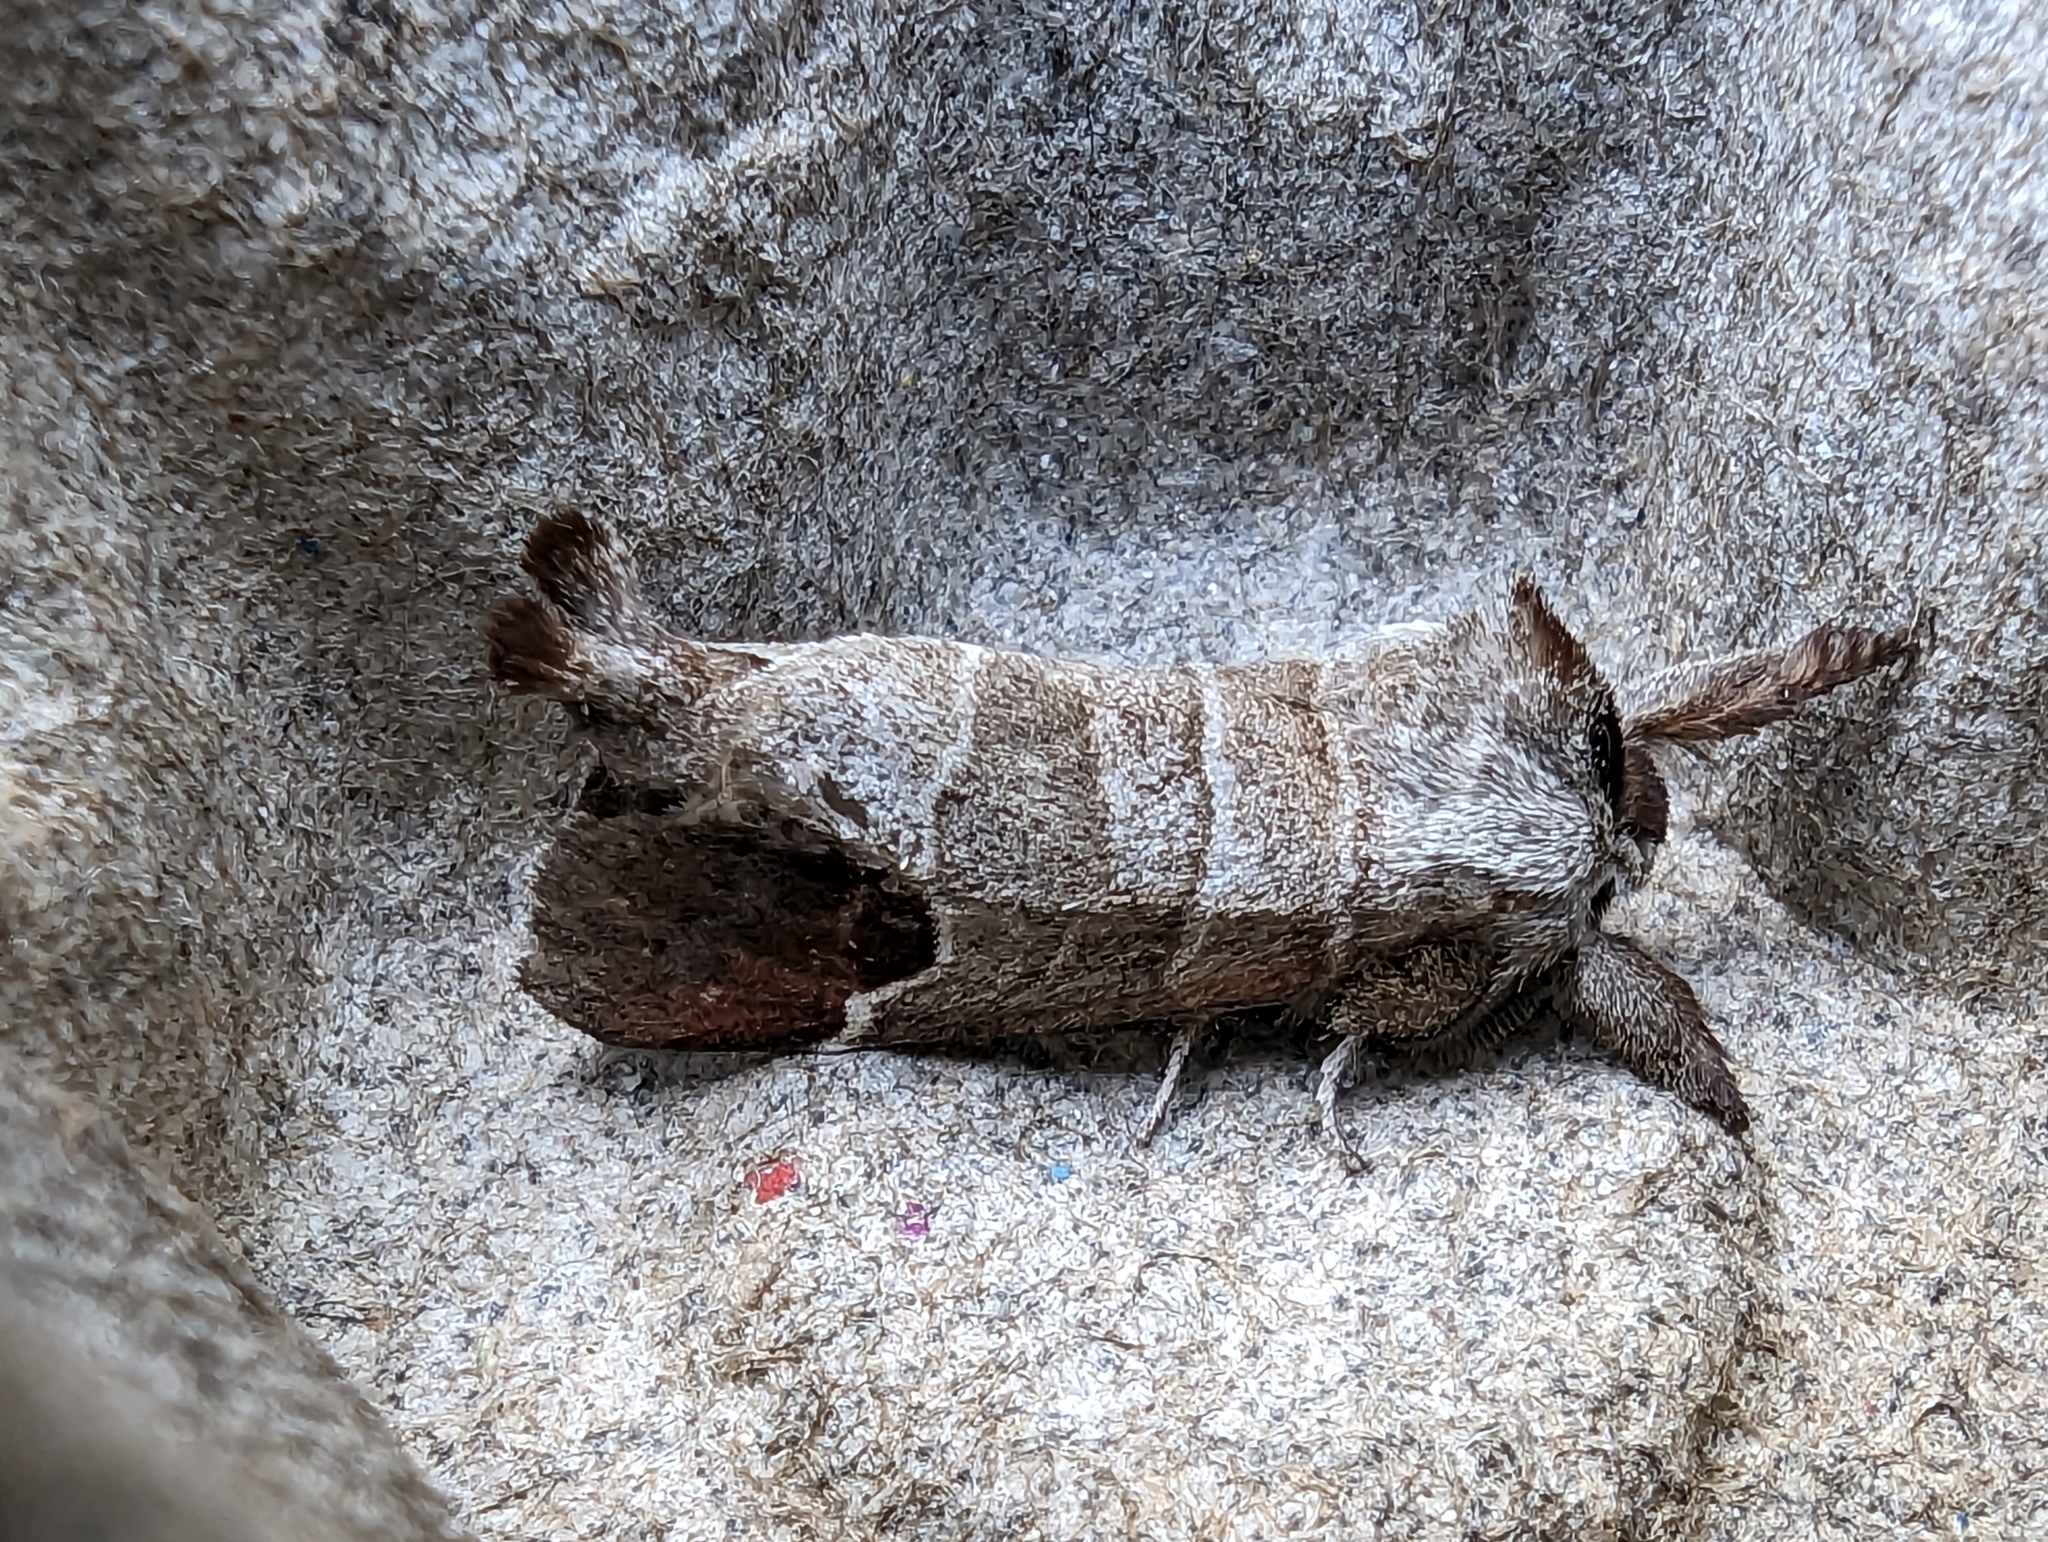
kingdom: Animalia
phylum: Arthropoda
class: Insecta
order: Lepidoptera
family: Notodontidae
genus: Clostera
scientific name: Clostera curtula
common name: Chocolate-tip
